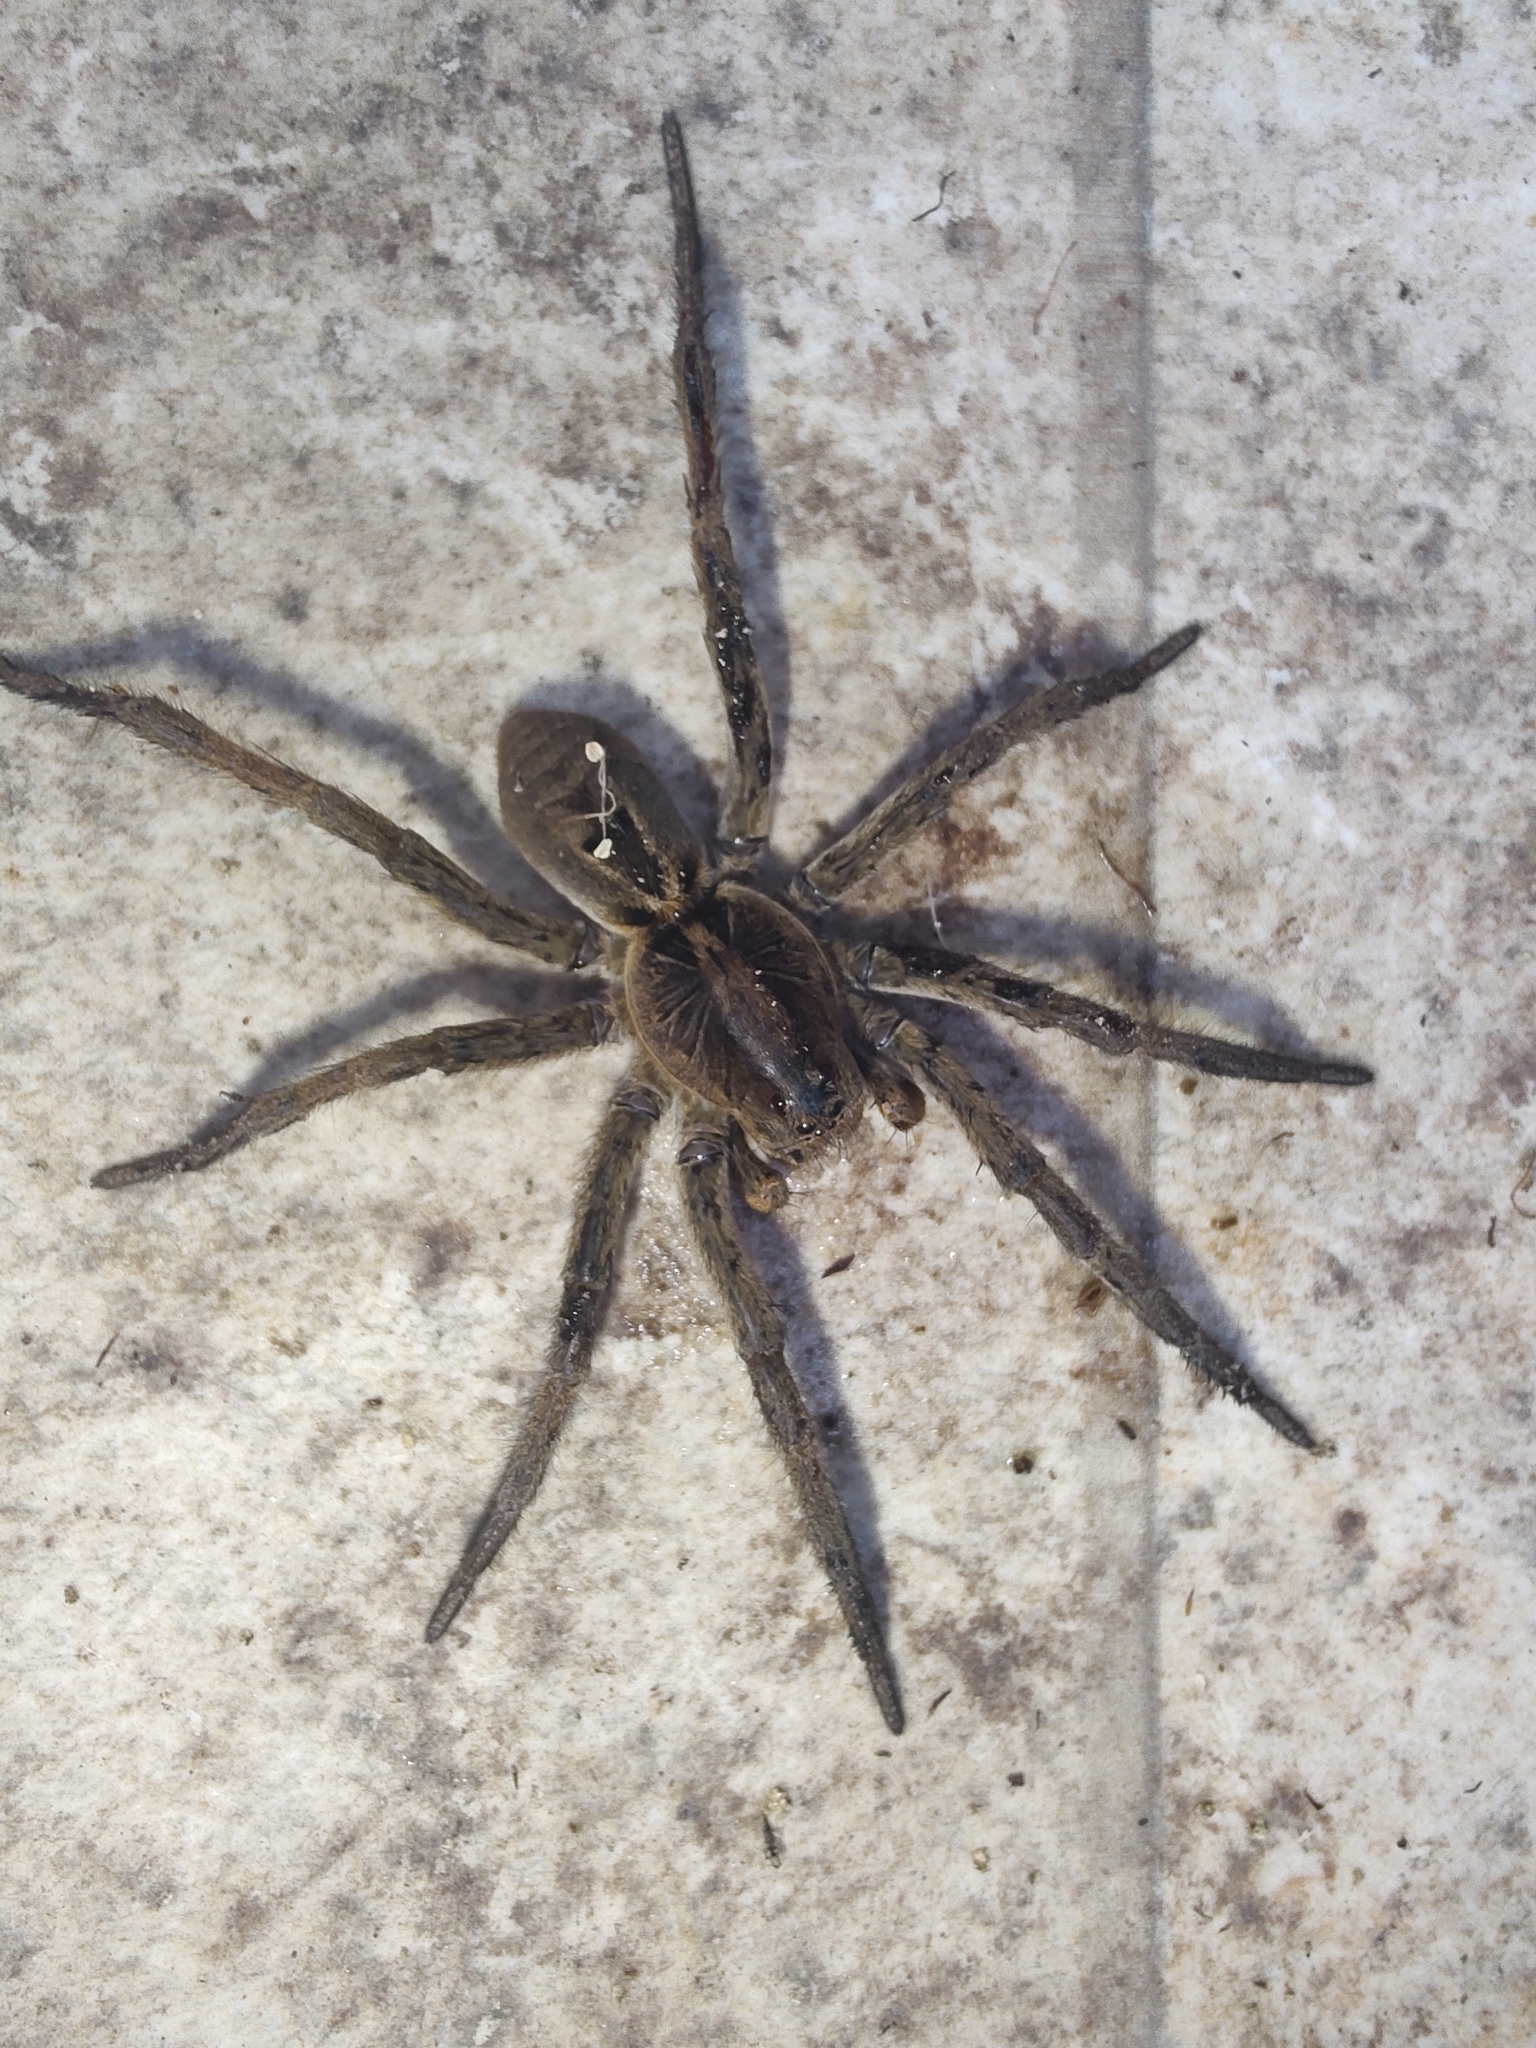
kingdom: Animalia
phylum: Arthropoda
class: Arachnida
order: Araneae
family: Lycosidae
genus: Lycosa
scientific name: Lycosa erythrognatha
